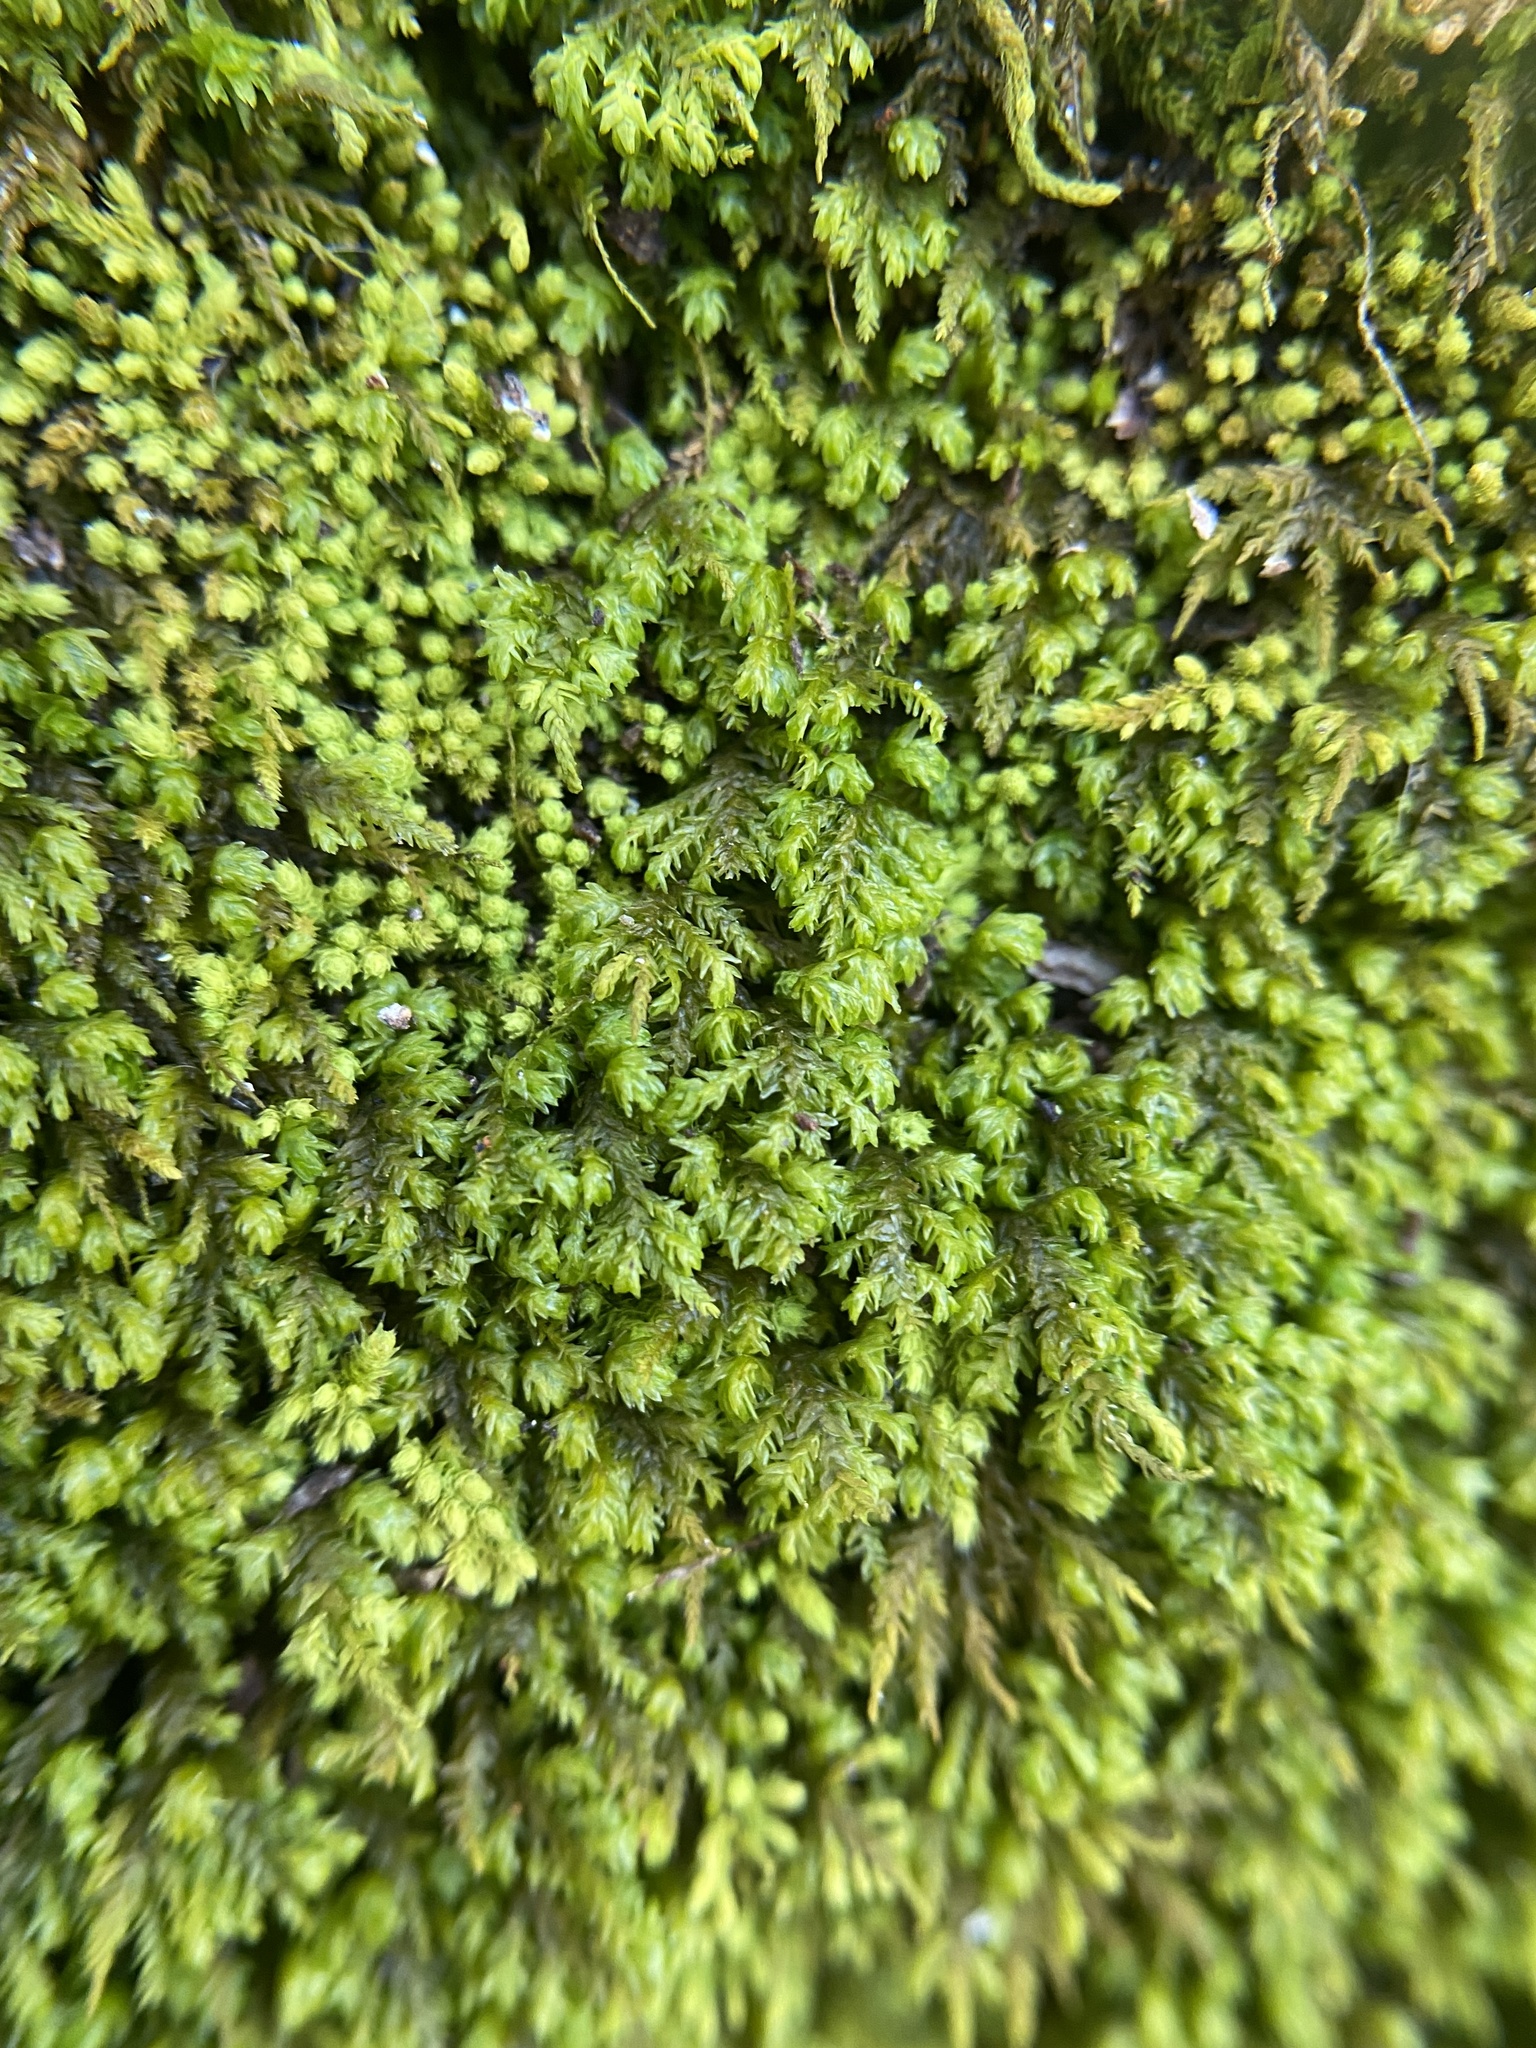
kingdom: Plantae
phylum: Bryophyta
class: Bryopsida
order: Hypnales
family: Neckeraceae
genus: Pseudanomodon
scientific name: Pseudanomodon attenuatus
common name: Tree-skirt moss
